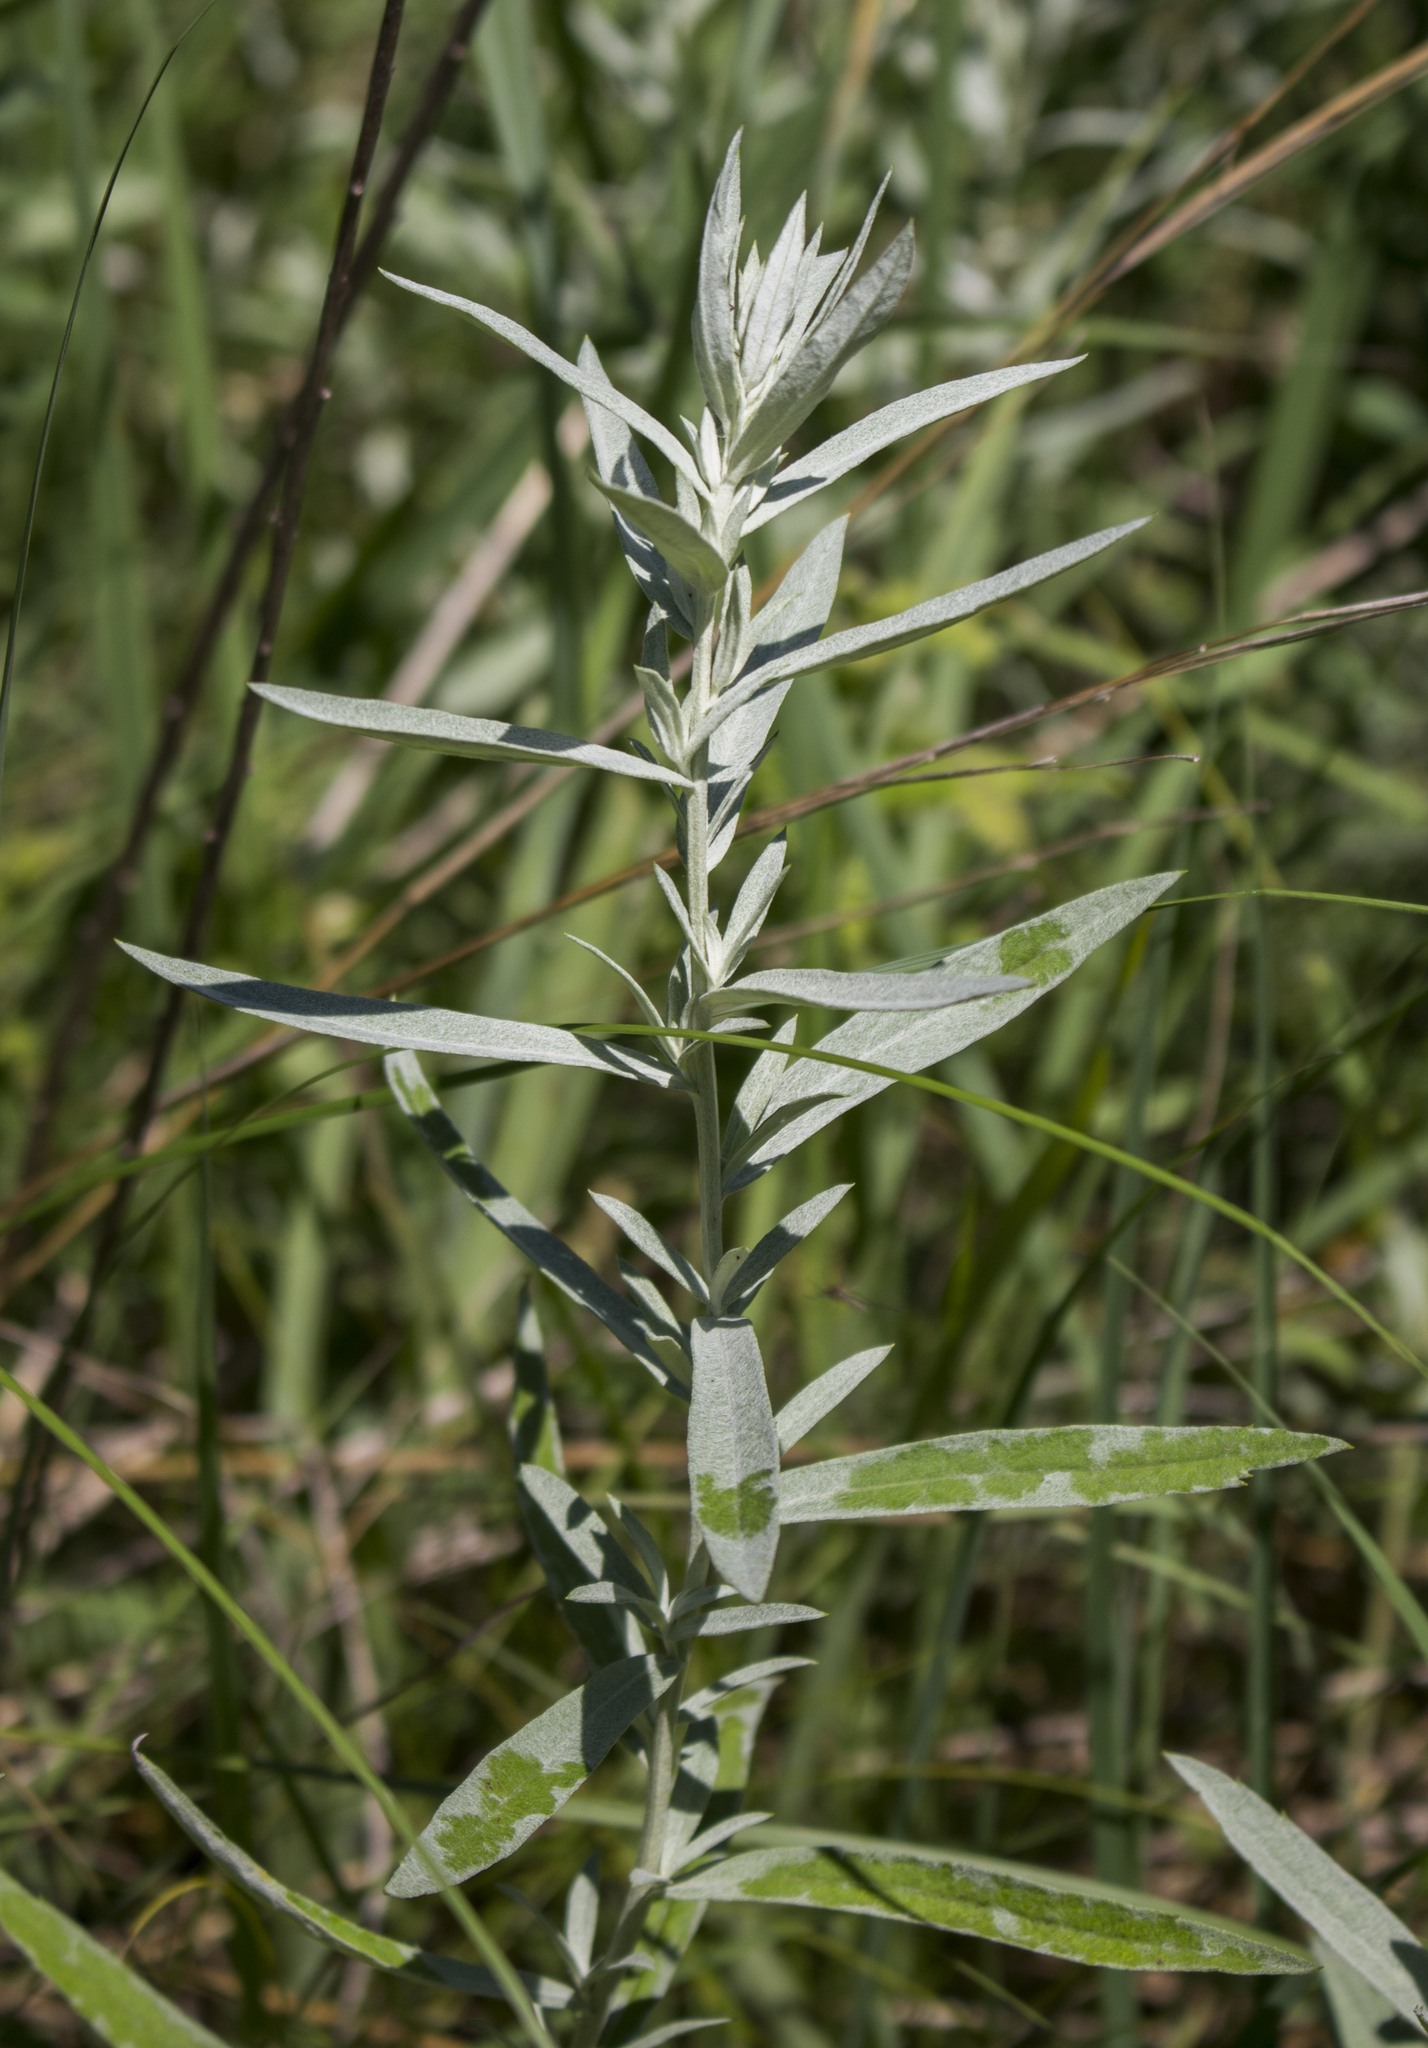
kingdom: Plantae
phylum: Tracheophyta
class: Magnoliopsida
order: Asterales
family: Asteraceae
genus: Artemisia
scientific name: Artemisia ludoviciana
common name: Western mugwort
